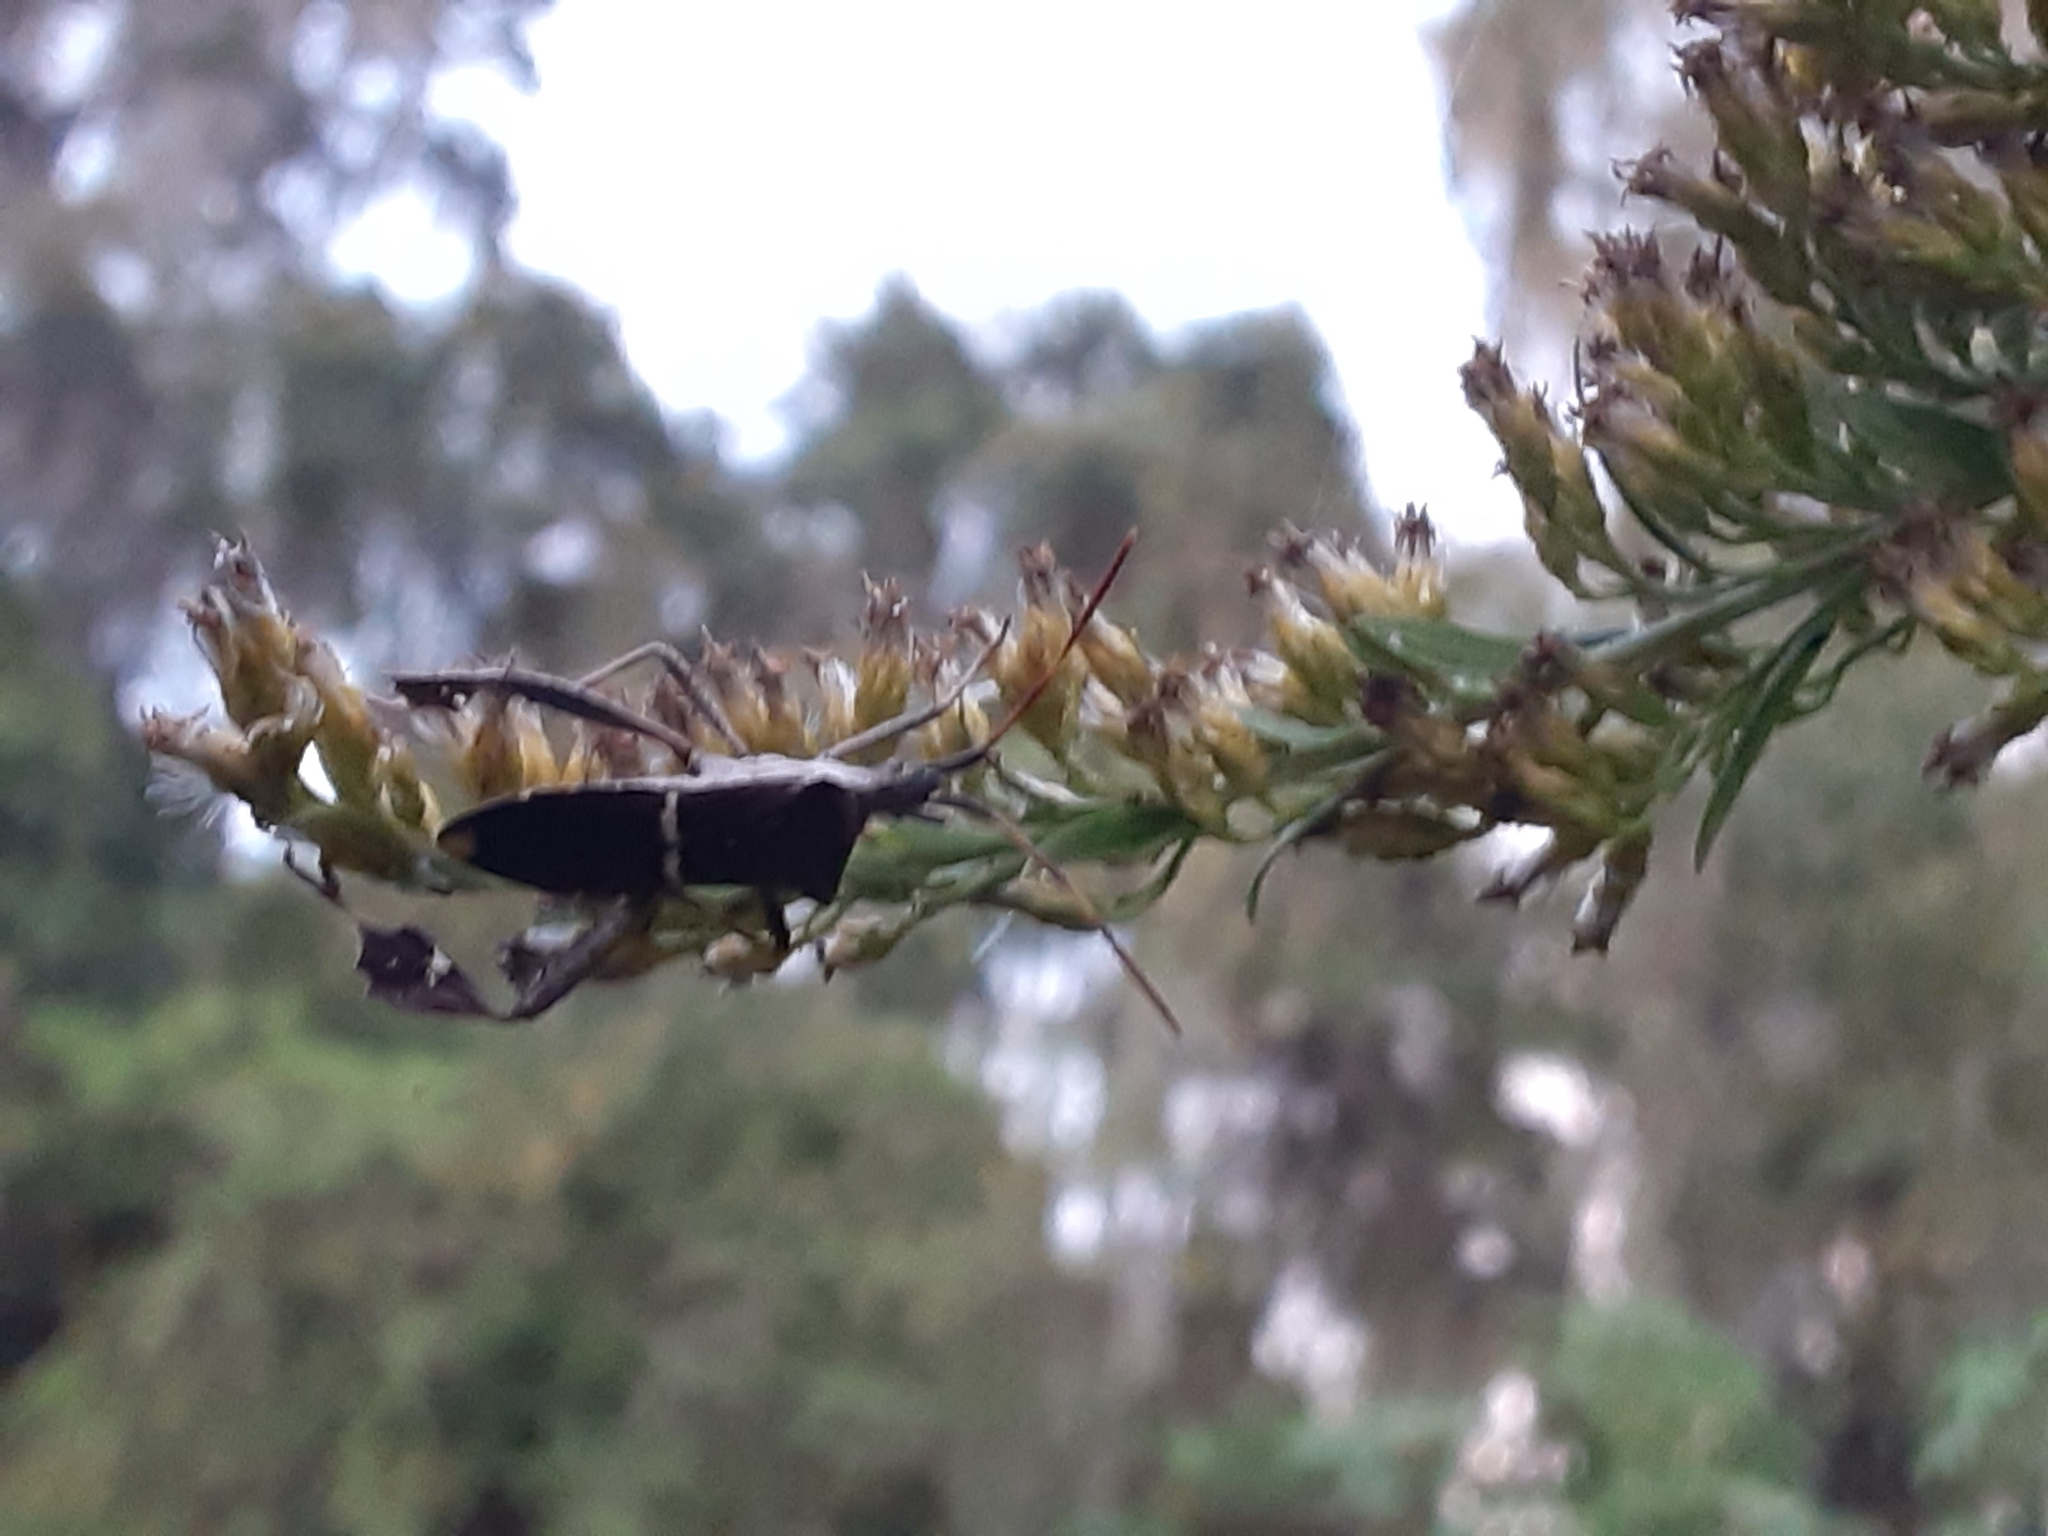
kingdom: Animalia
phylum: Arthropoda
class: Insecta
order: Hemiptera
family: Coreidae
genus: Leptoglossus
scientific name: Leptoglossus phyllopus
